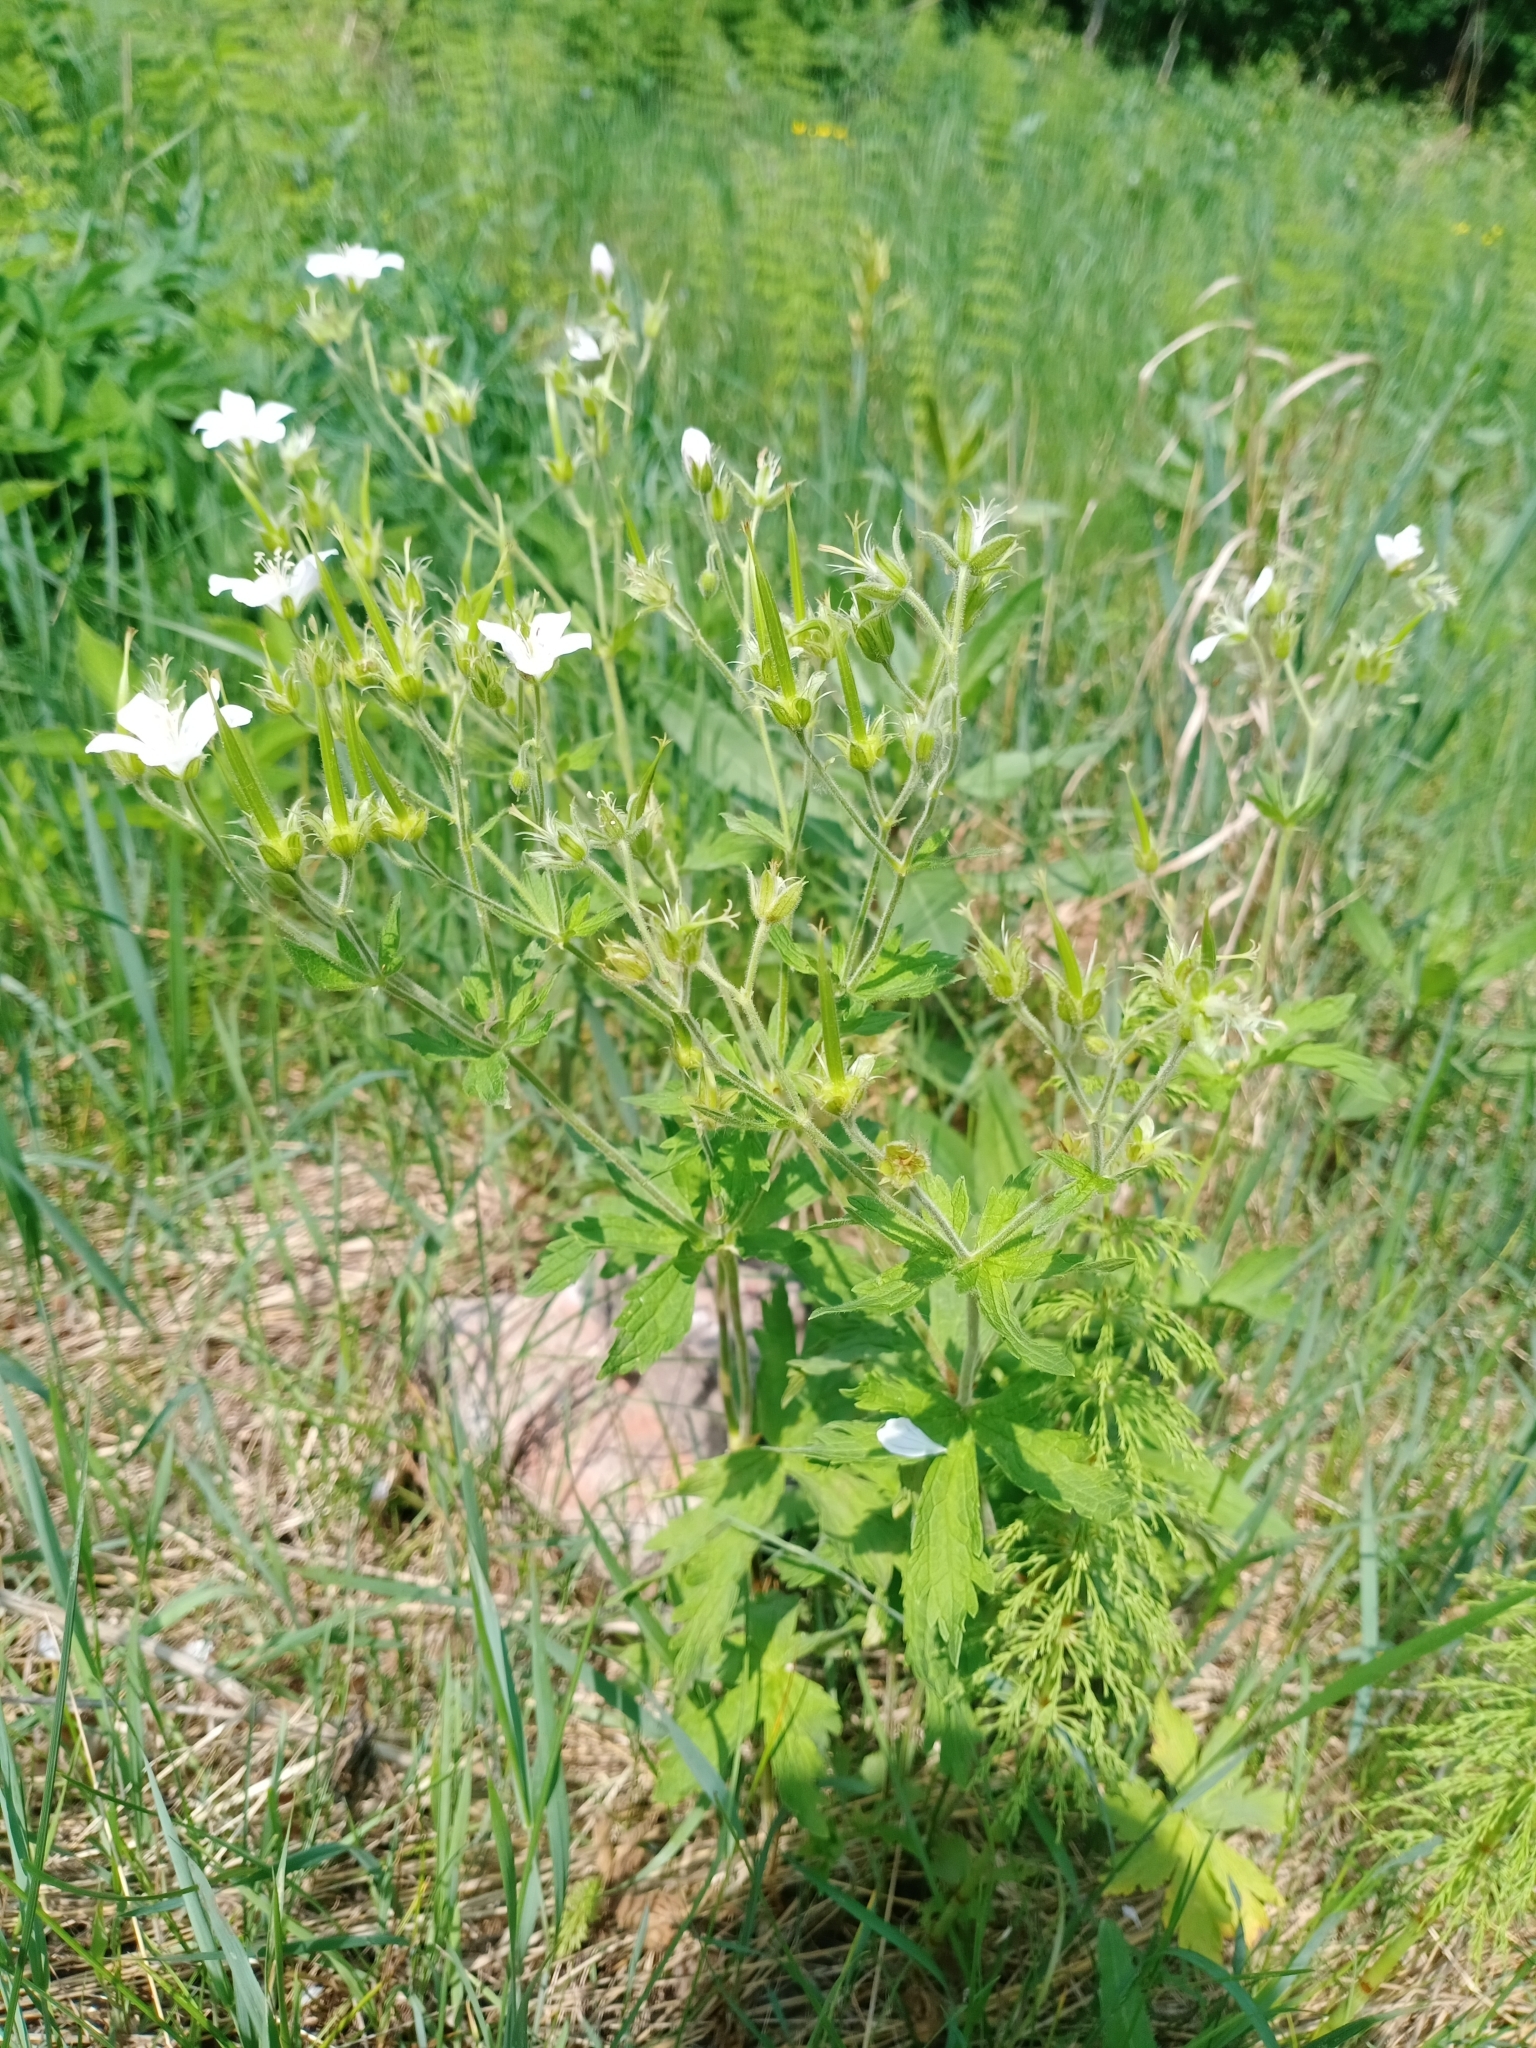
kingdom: Plantae
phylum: Tracheophyta
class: Magnoliopsida
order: Geraniales
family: Geraniaceae
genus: Geranium
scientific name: Geranium sylvaticum
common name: Wood crane's-bill
